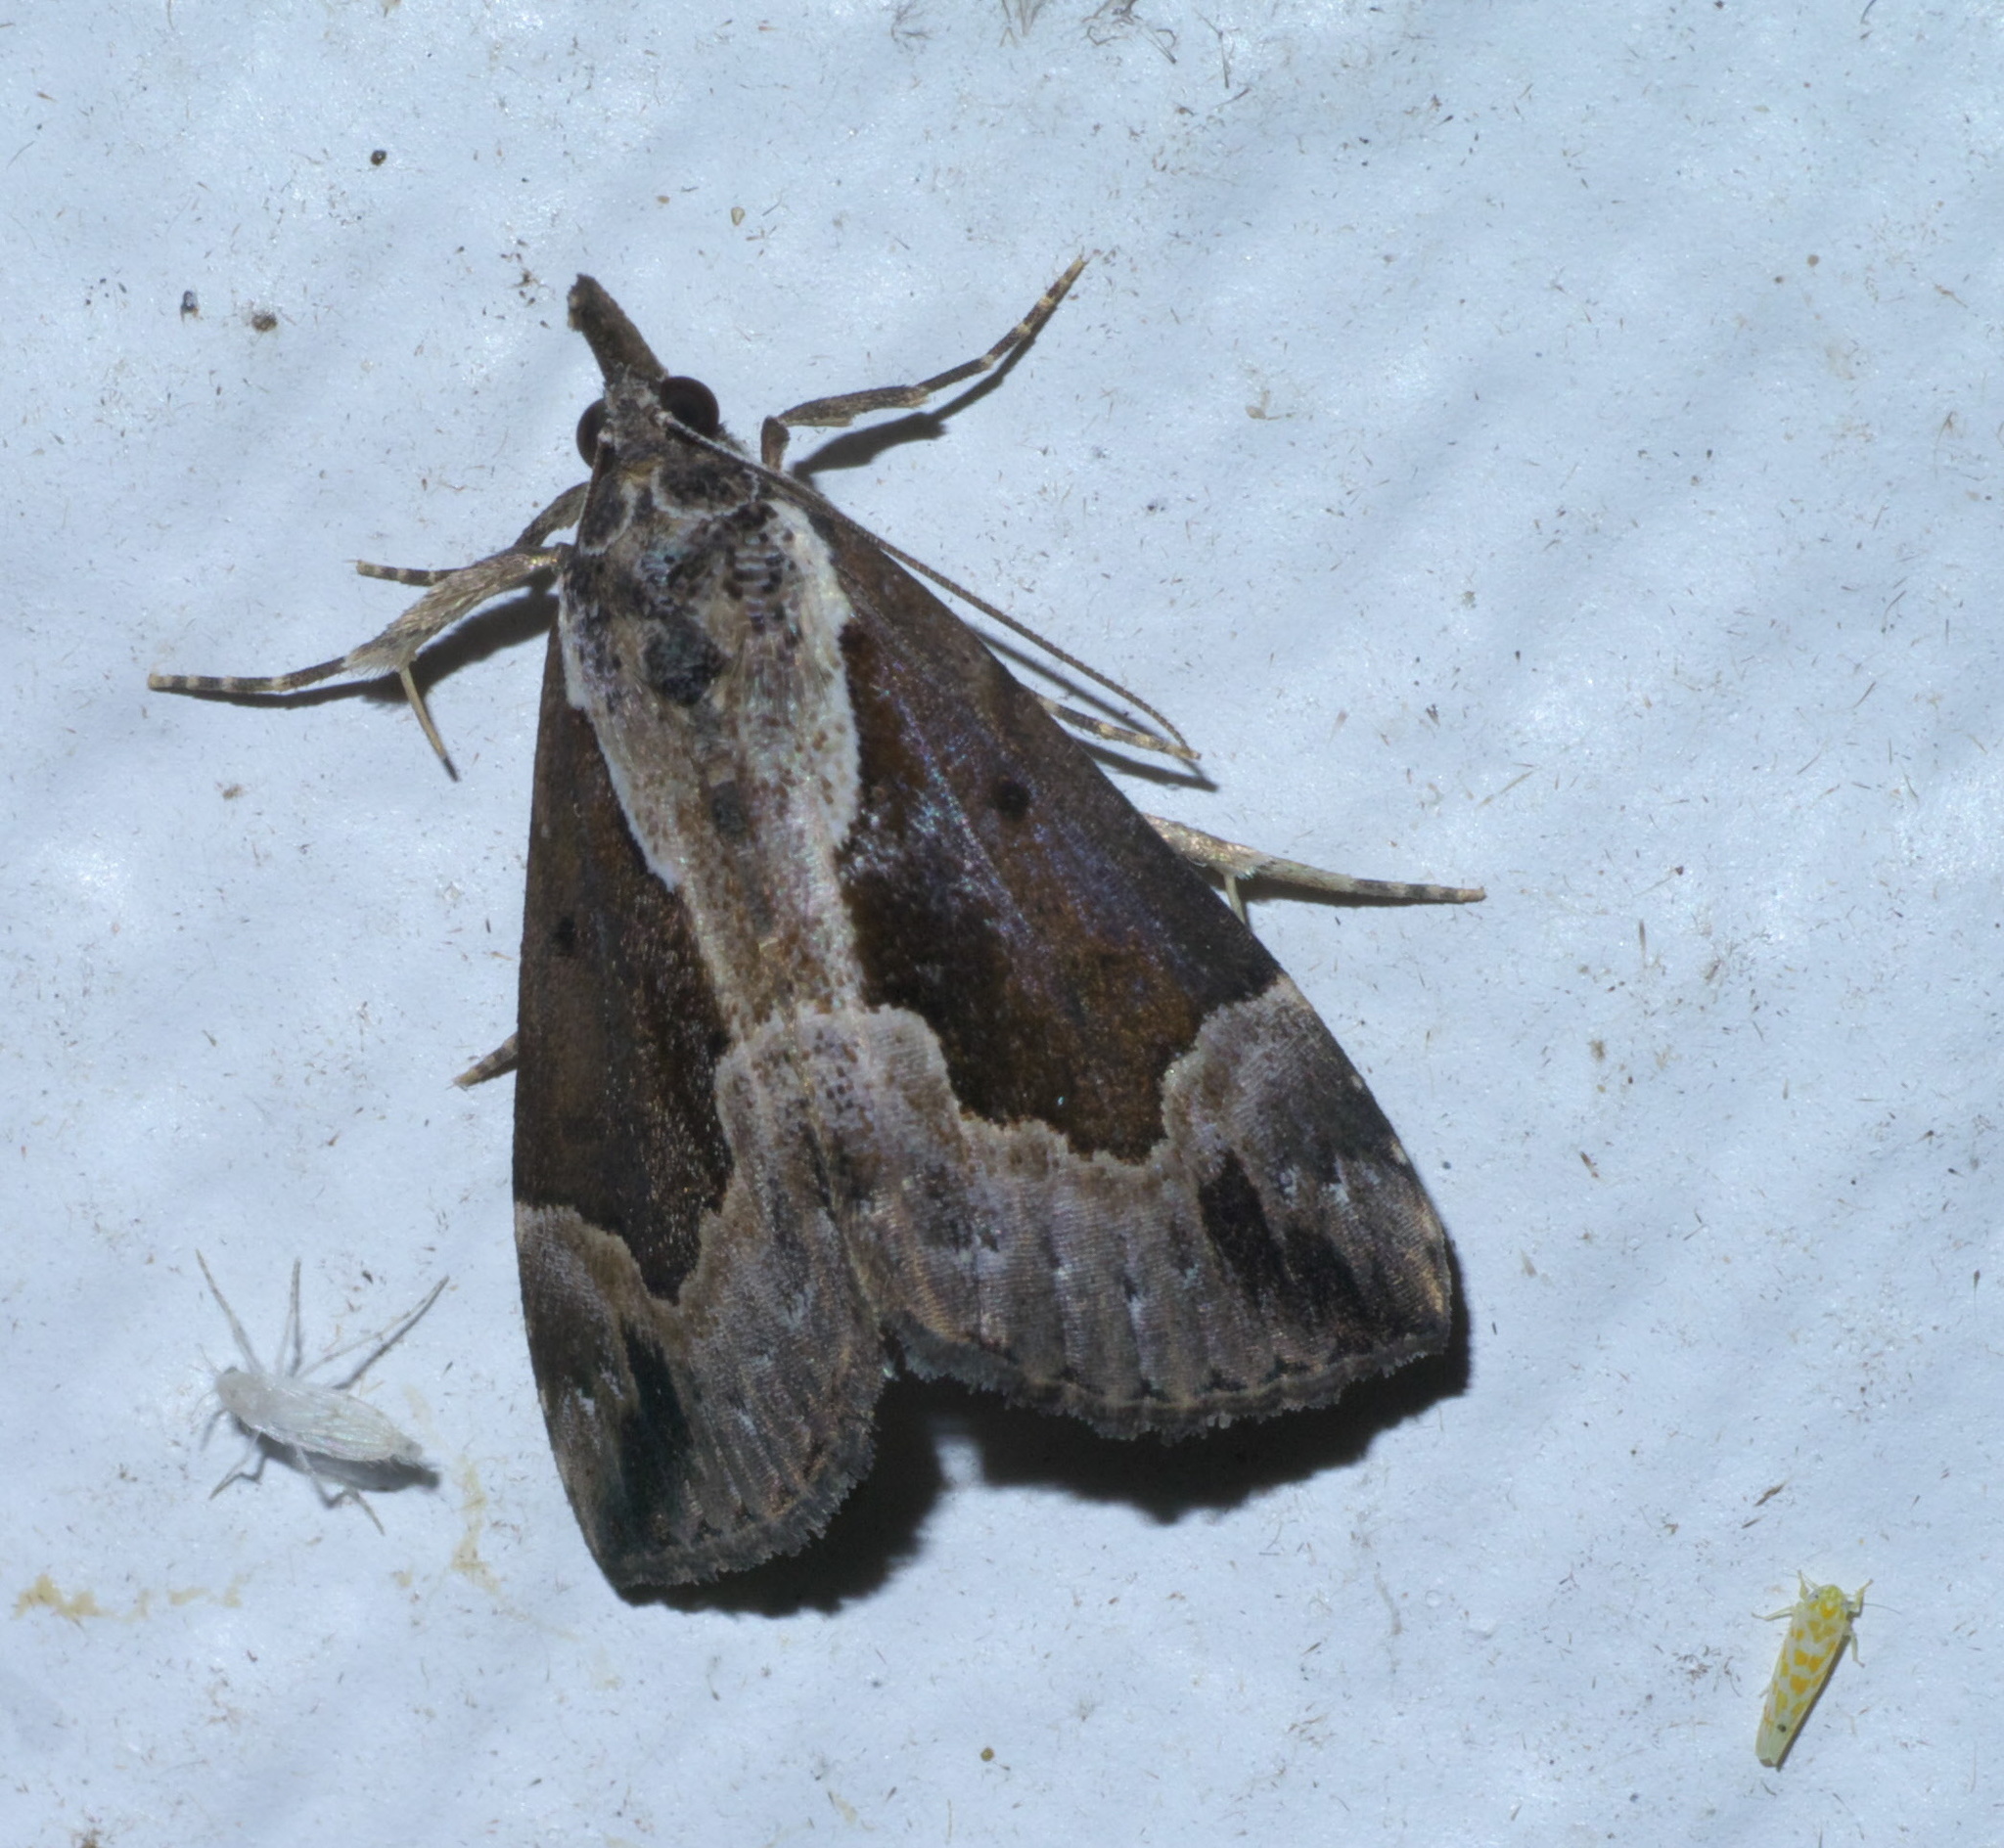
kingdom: Animalia
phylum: Arthropoda
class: Insecta
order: Lepidoptera
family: Erebidae
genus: Hypena
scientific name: Hypena baltimoralis
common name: Baltimore snout
